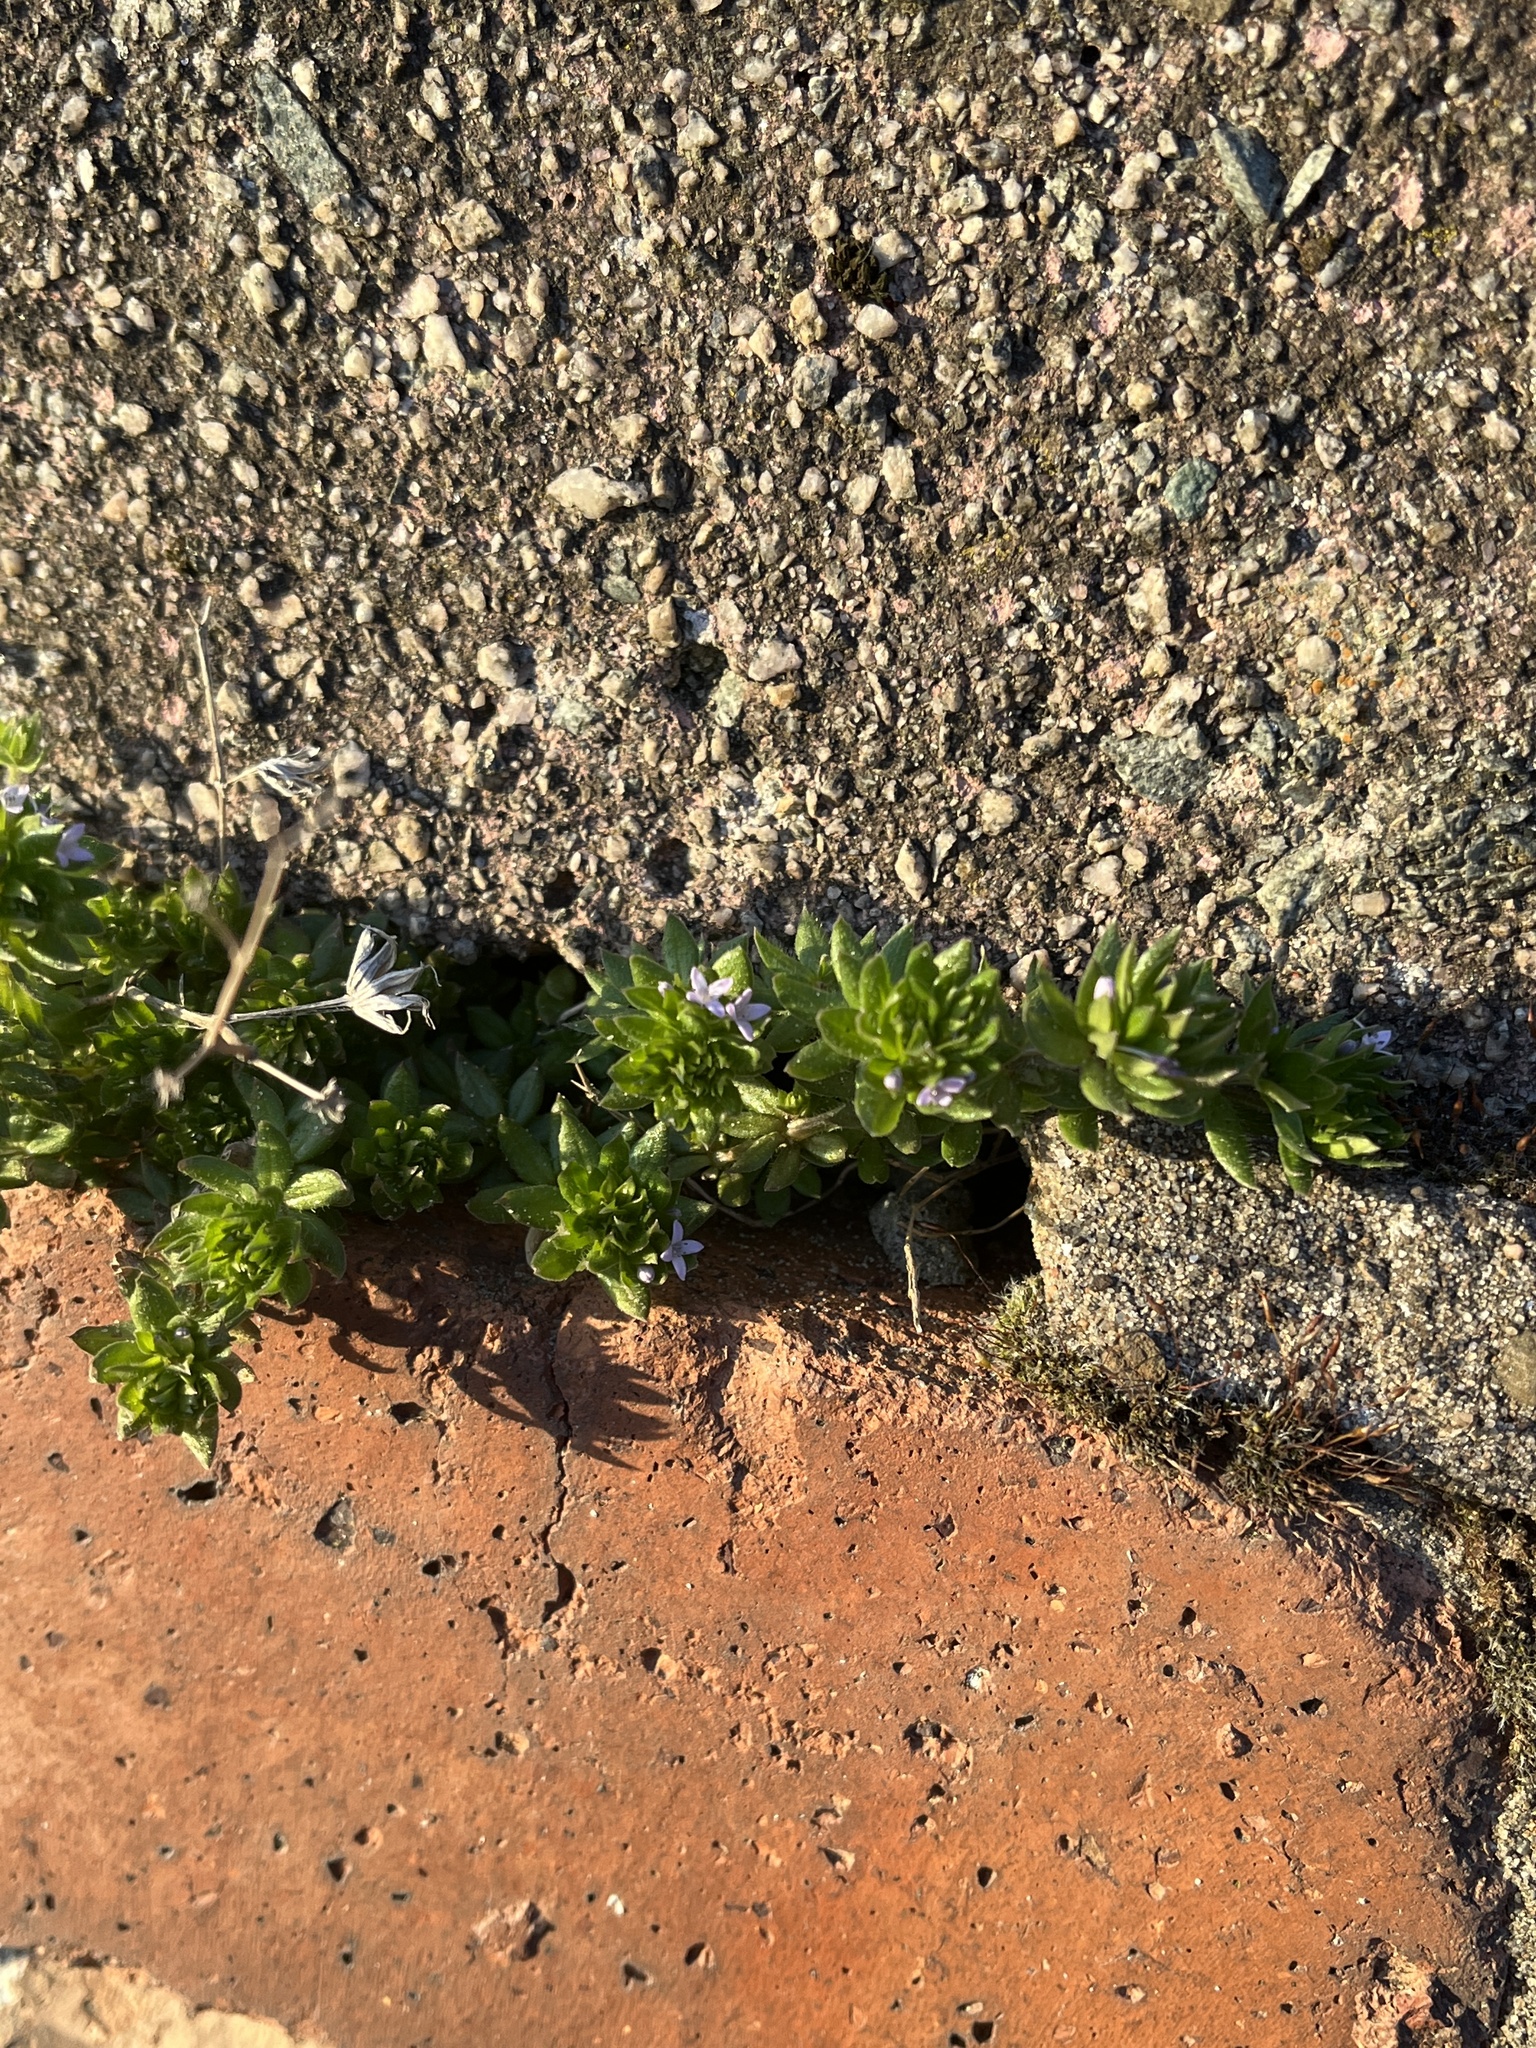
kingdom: Plantae
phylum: Tracheophyta
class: Magnoliopsida
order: Gentianales
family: Rubiaceae
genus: Sherardia
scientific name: Sherardia arvensis
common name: Field madder
